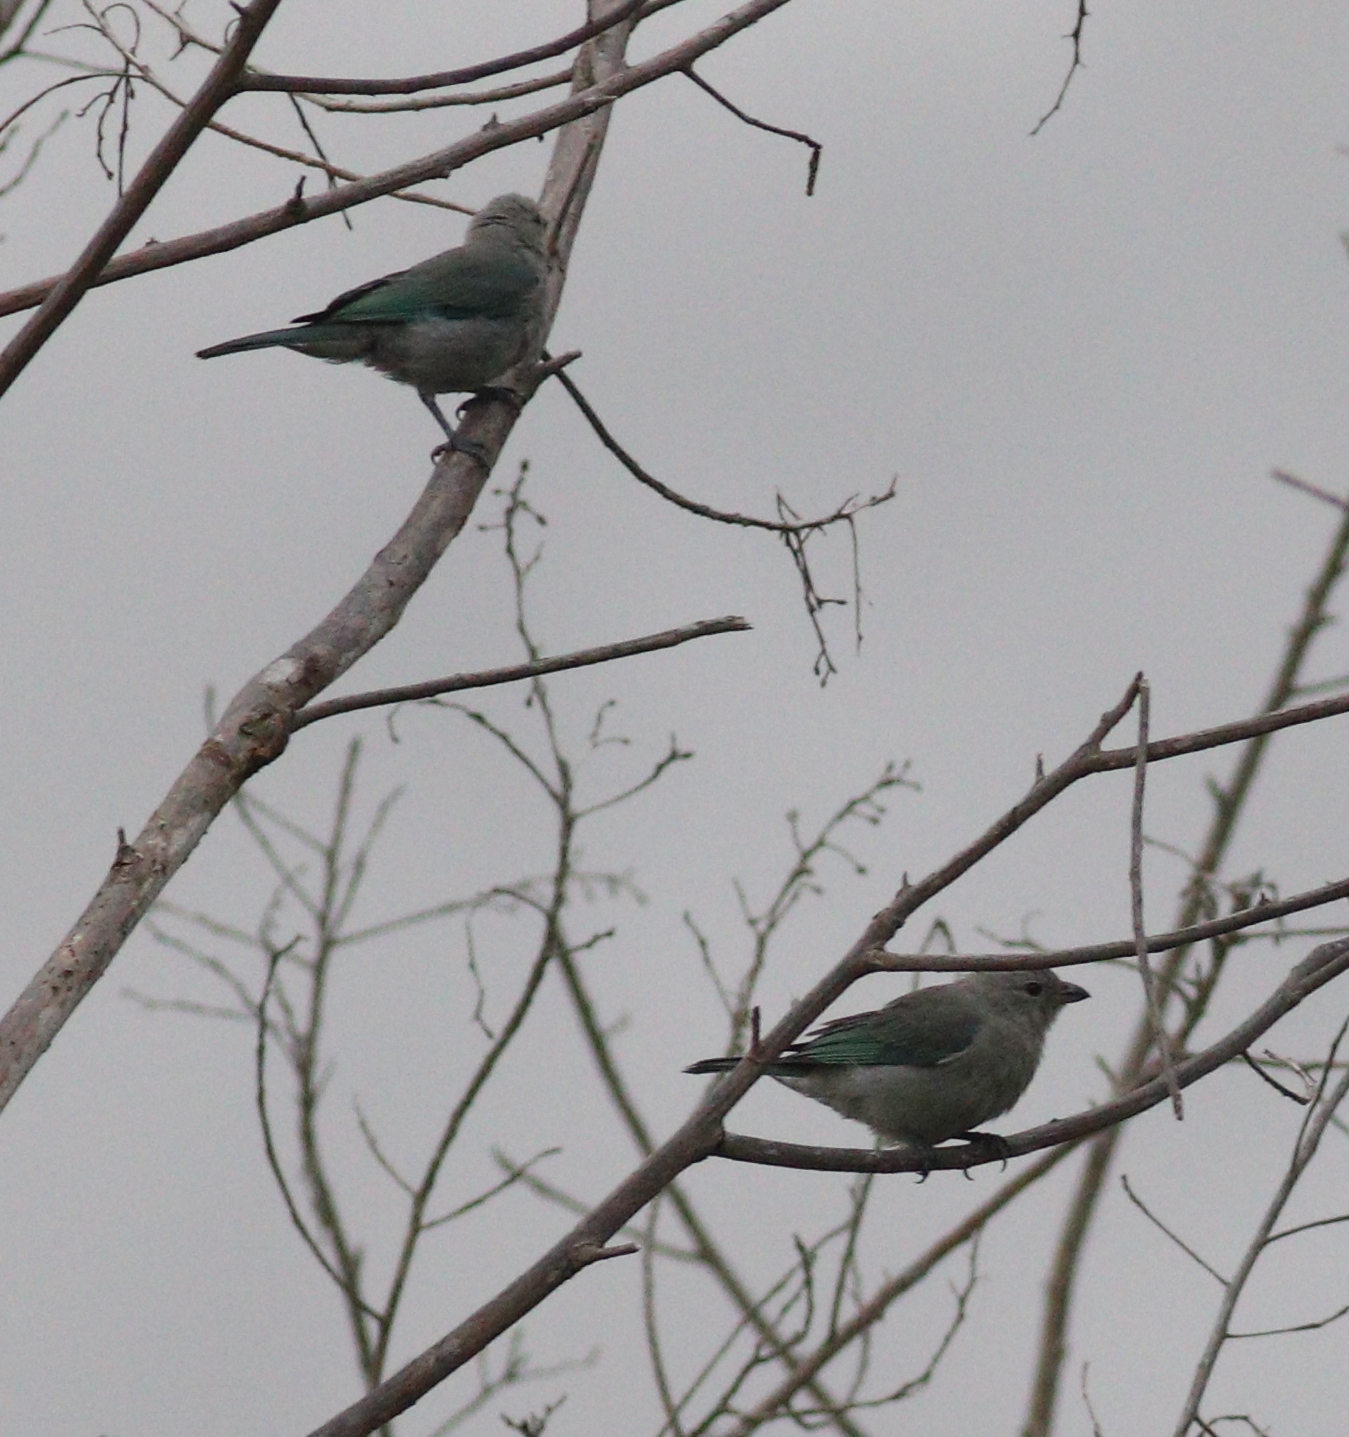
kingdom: Animalia
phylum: Chordata
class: Aves
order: Passeriformes
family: Thraupidae
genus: Thraupis
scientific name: Thraupis episcopus
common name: Blue-grey tanager
